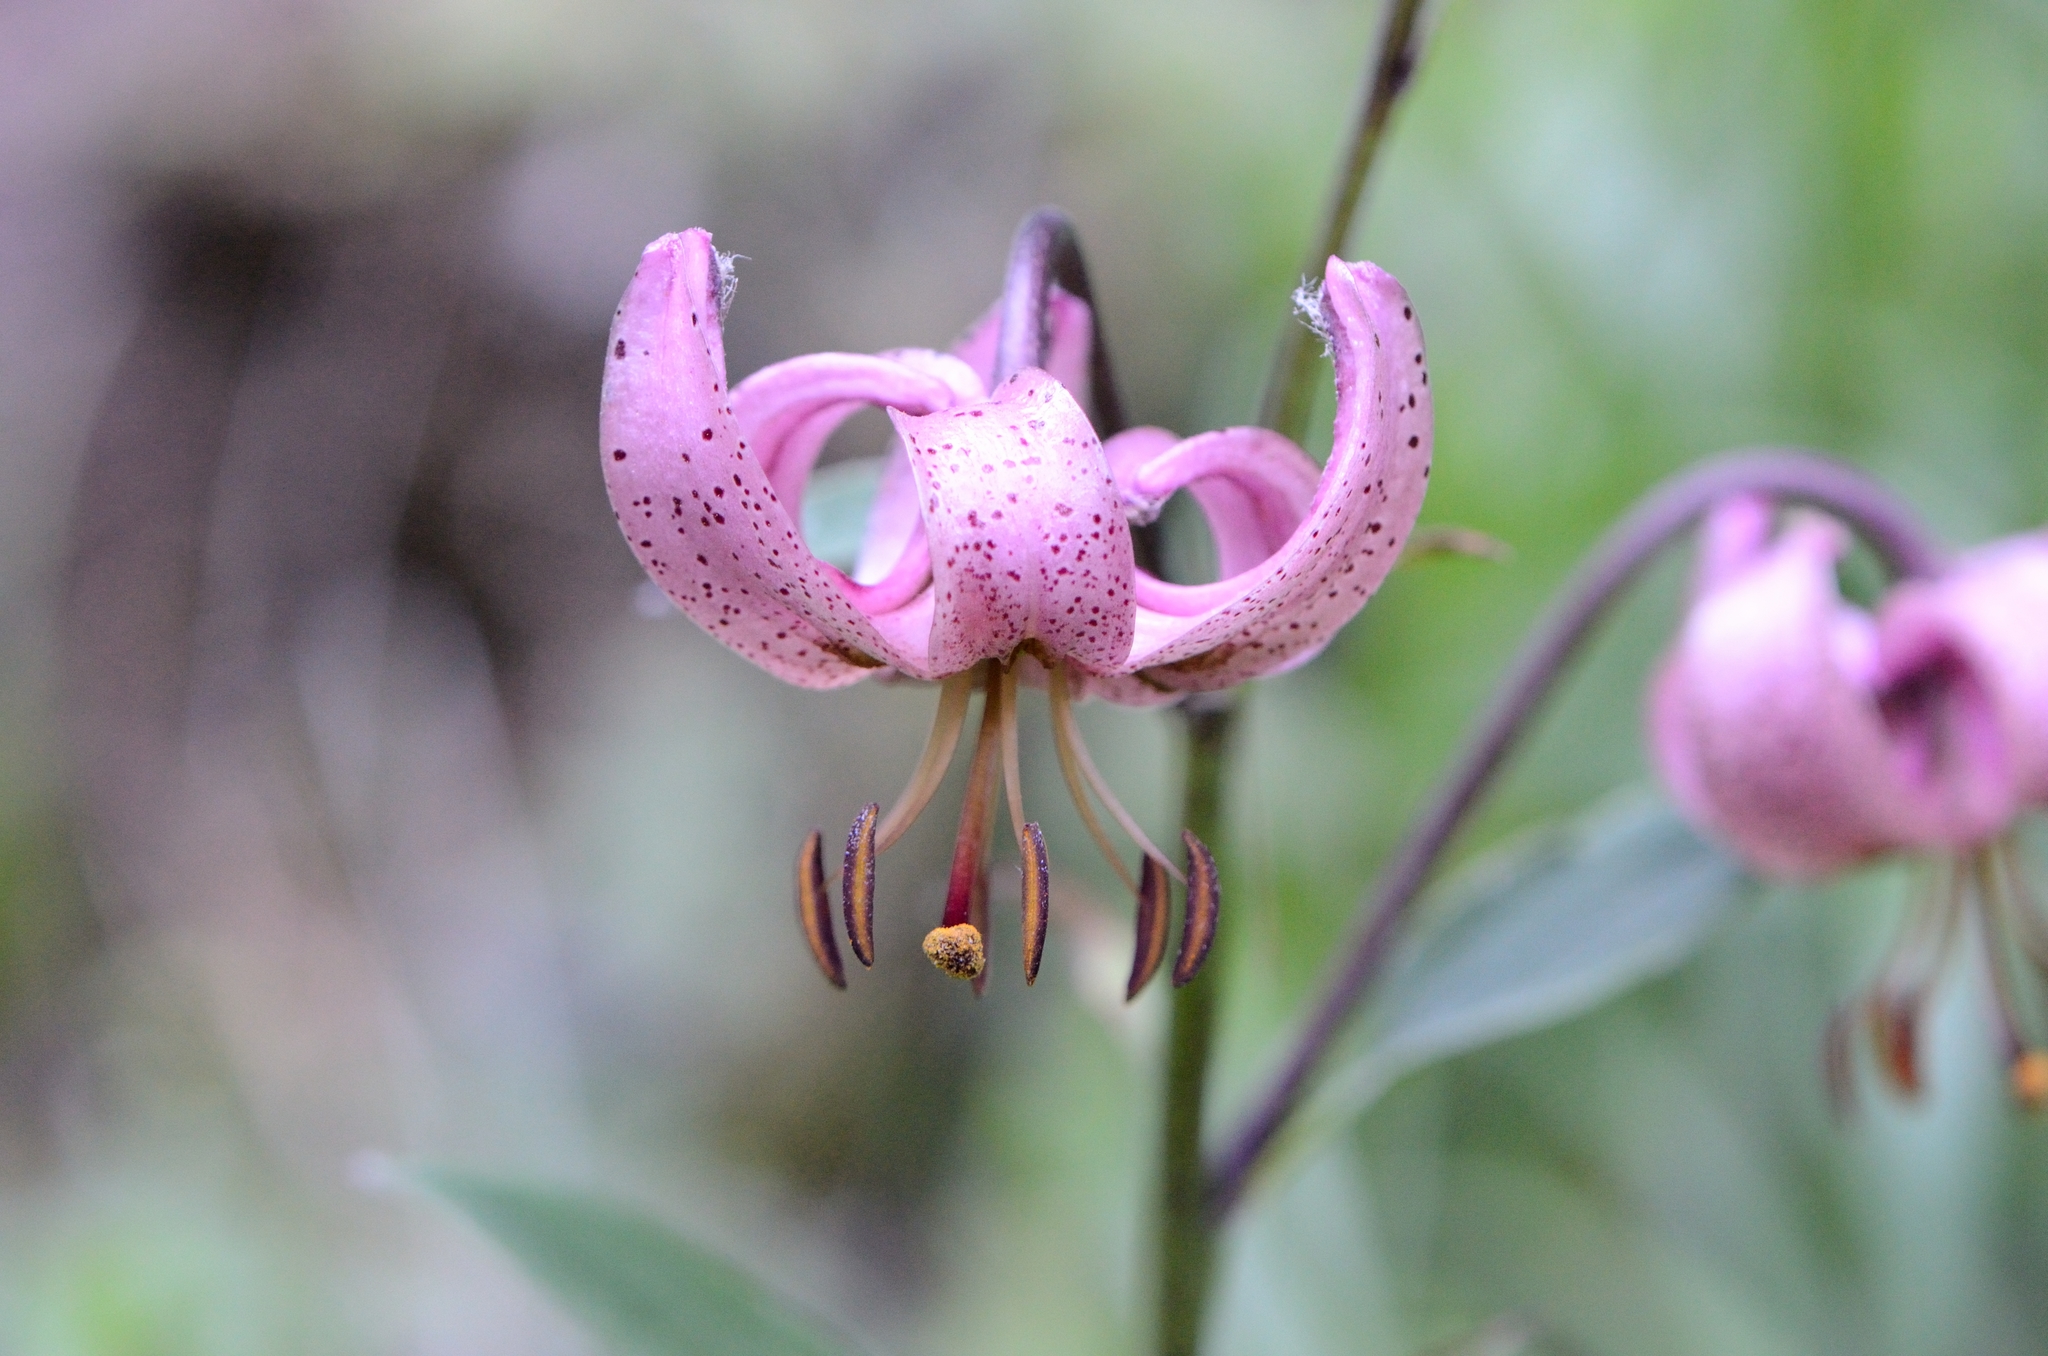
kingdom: Plantae
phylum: Tracheophyta
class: Liliopsida
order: Liliales
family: Liliaceae
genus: Lilium
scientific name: Lilium martagon
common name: Martagon lily
